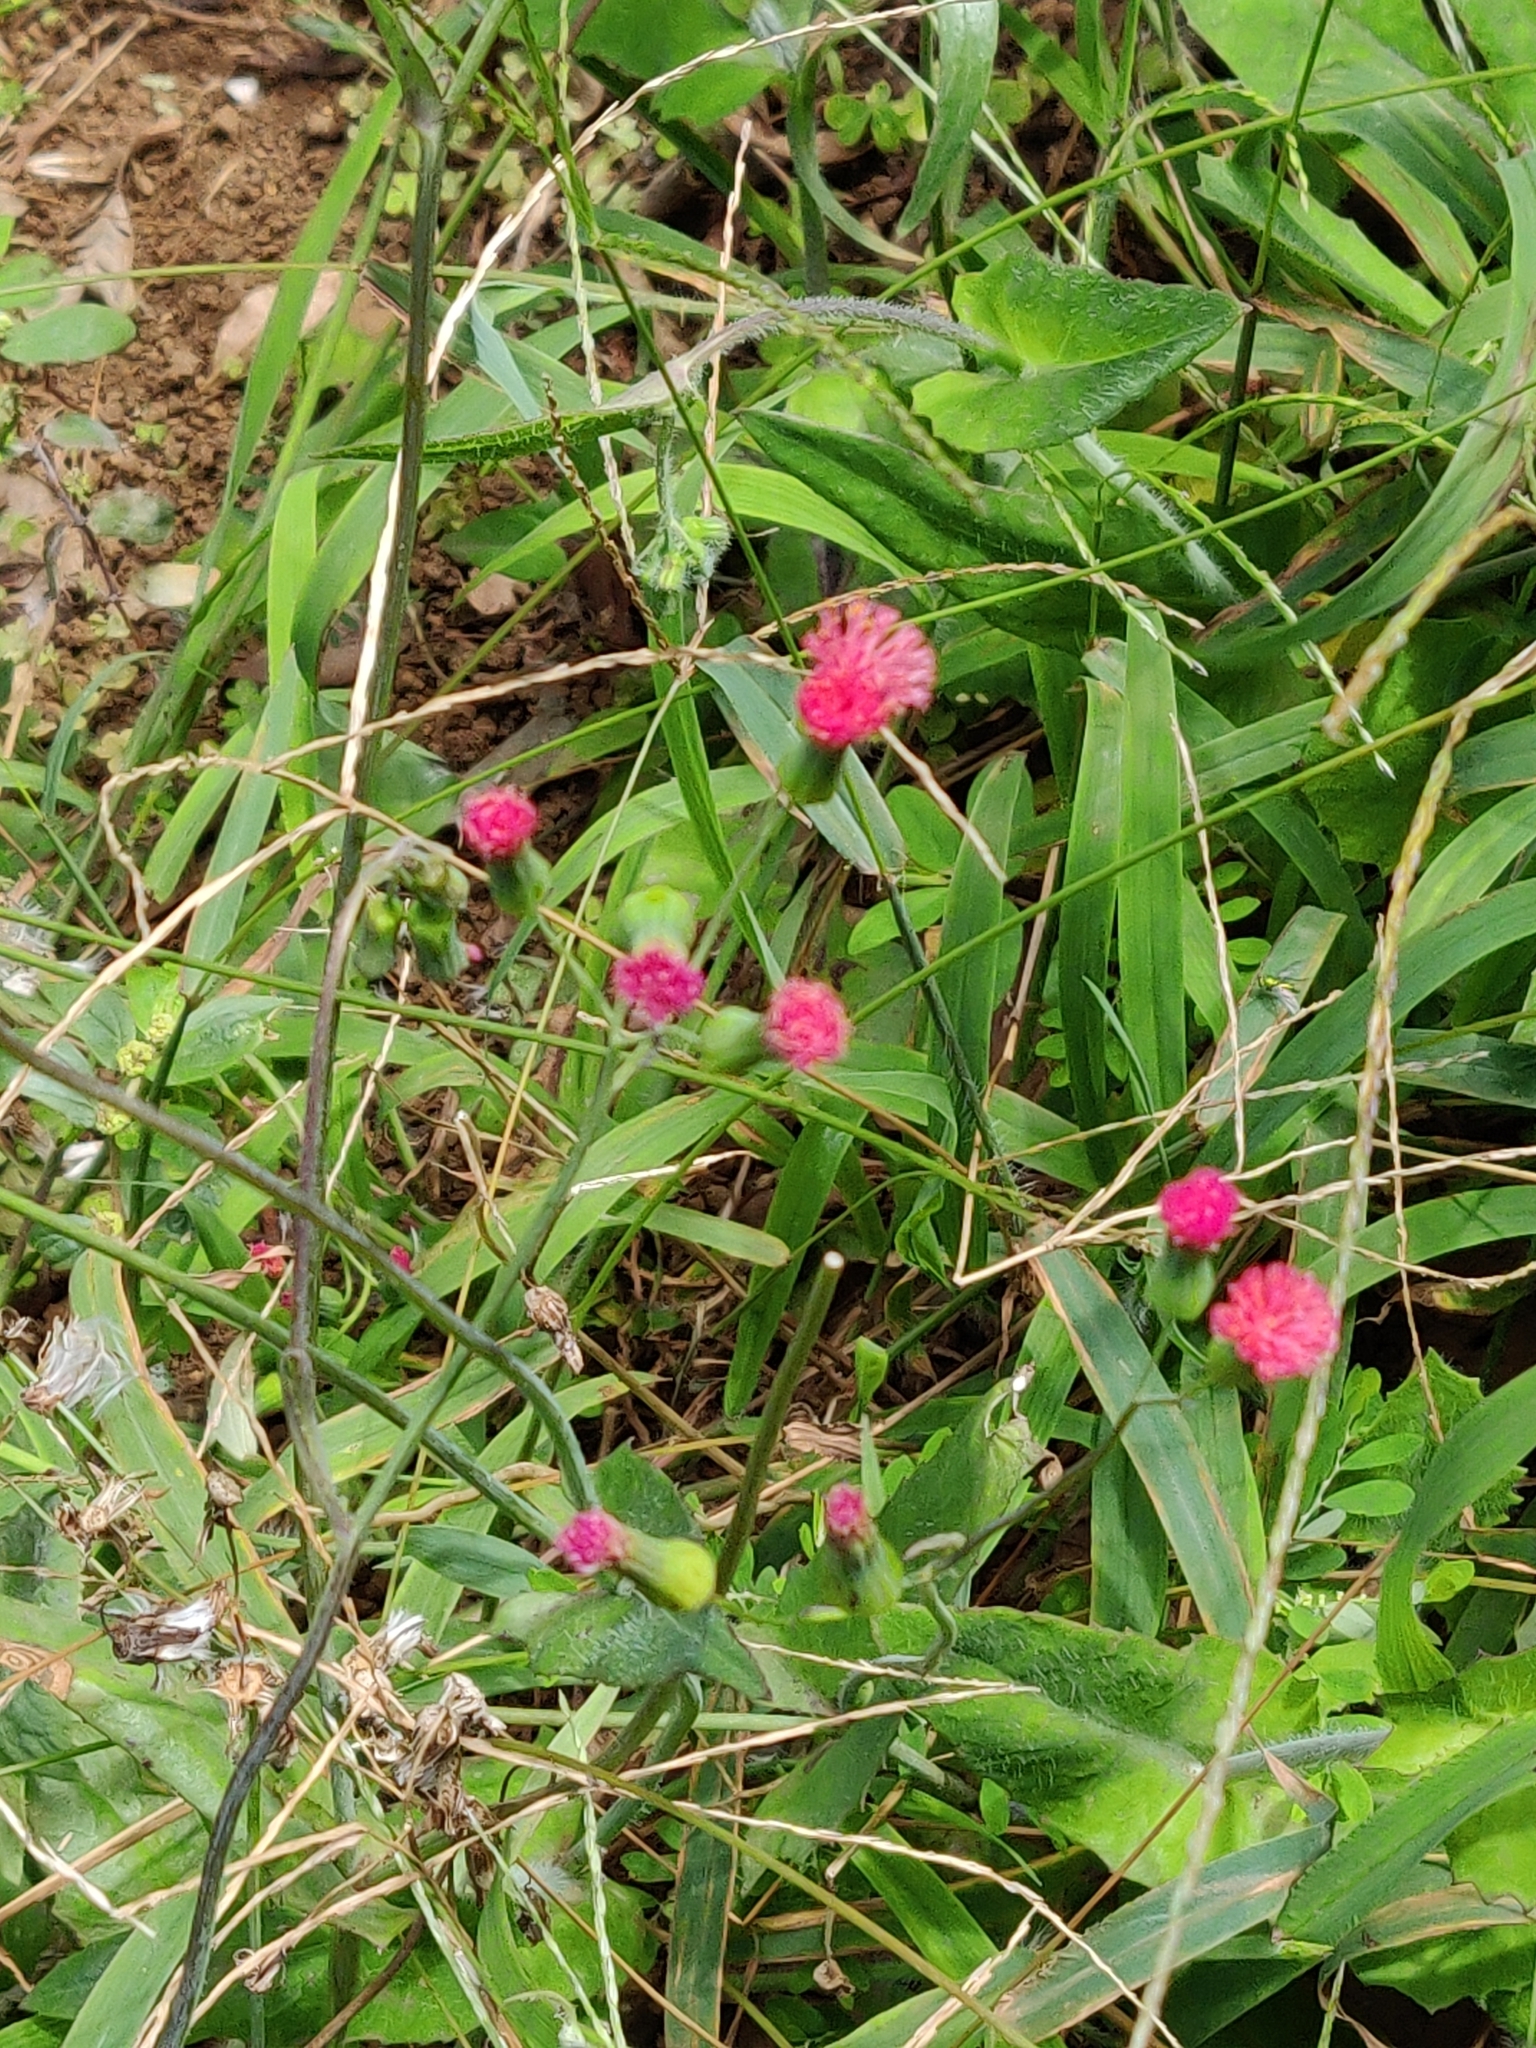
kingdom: Plantae
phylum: Tracheophyta
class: Magnoliopsida
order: Asterales
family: Asteraceae
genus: Emilia
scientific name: Emilia fosbergii
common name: Florida tasselflower
